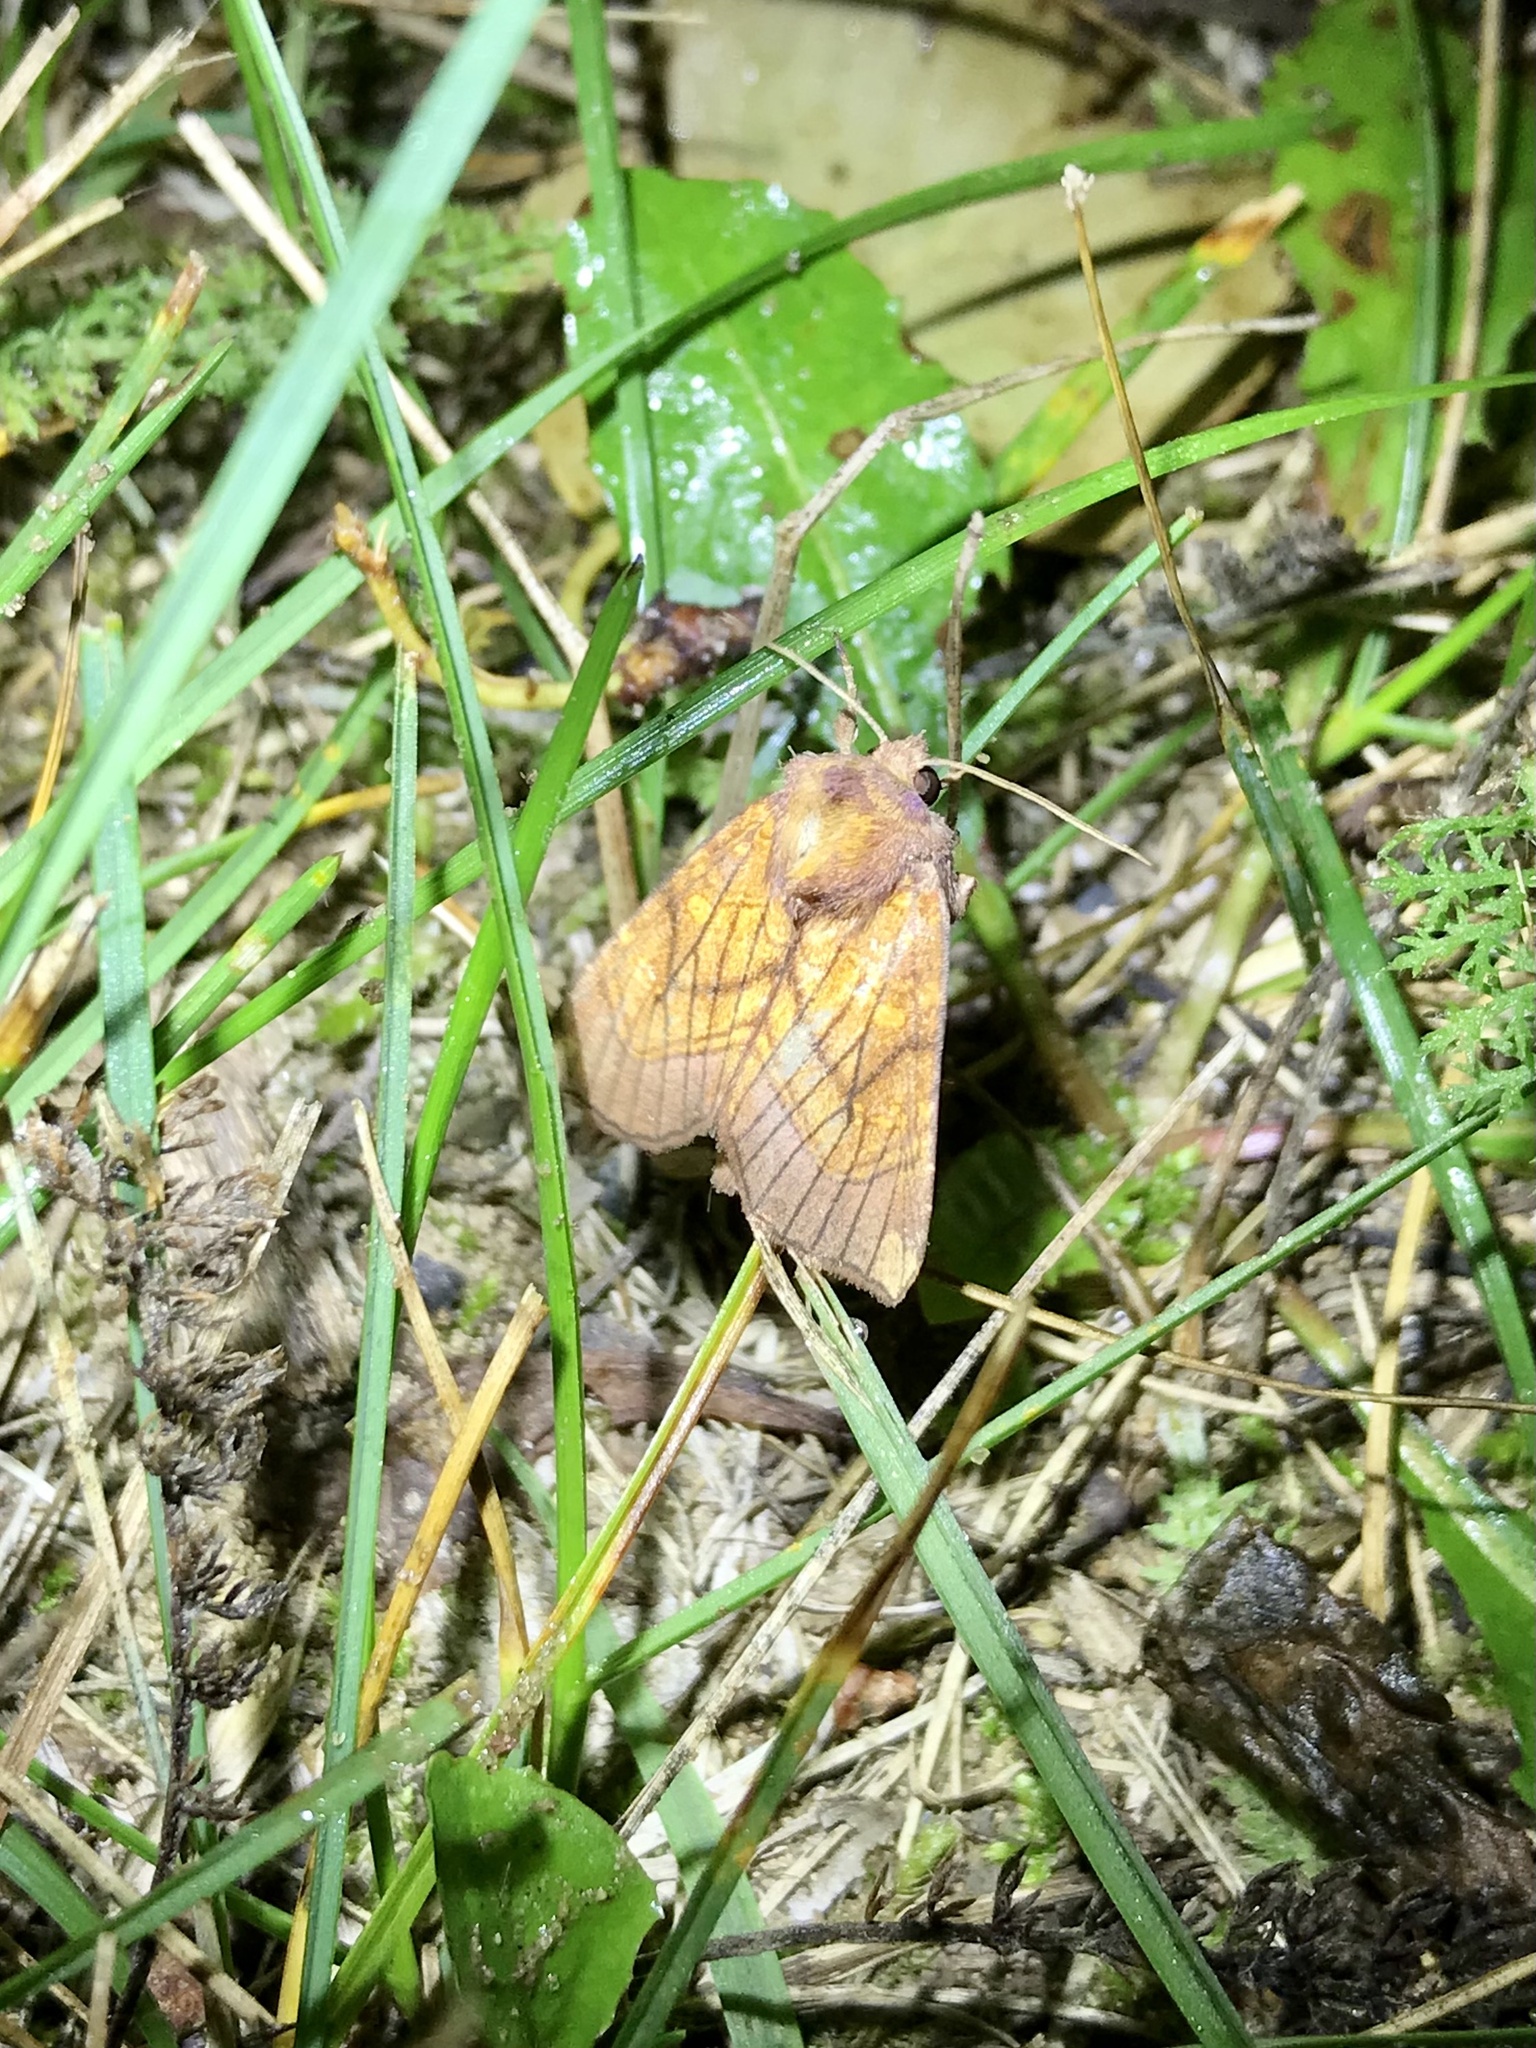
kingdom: Animalia
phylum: Arthropoda
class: Insecta
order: Lepidoptera
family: Noctuidae
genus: Papaipema
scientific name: Papaipema inquaesita
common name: Sensitive fern borer moth
